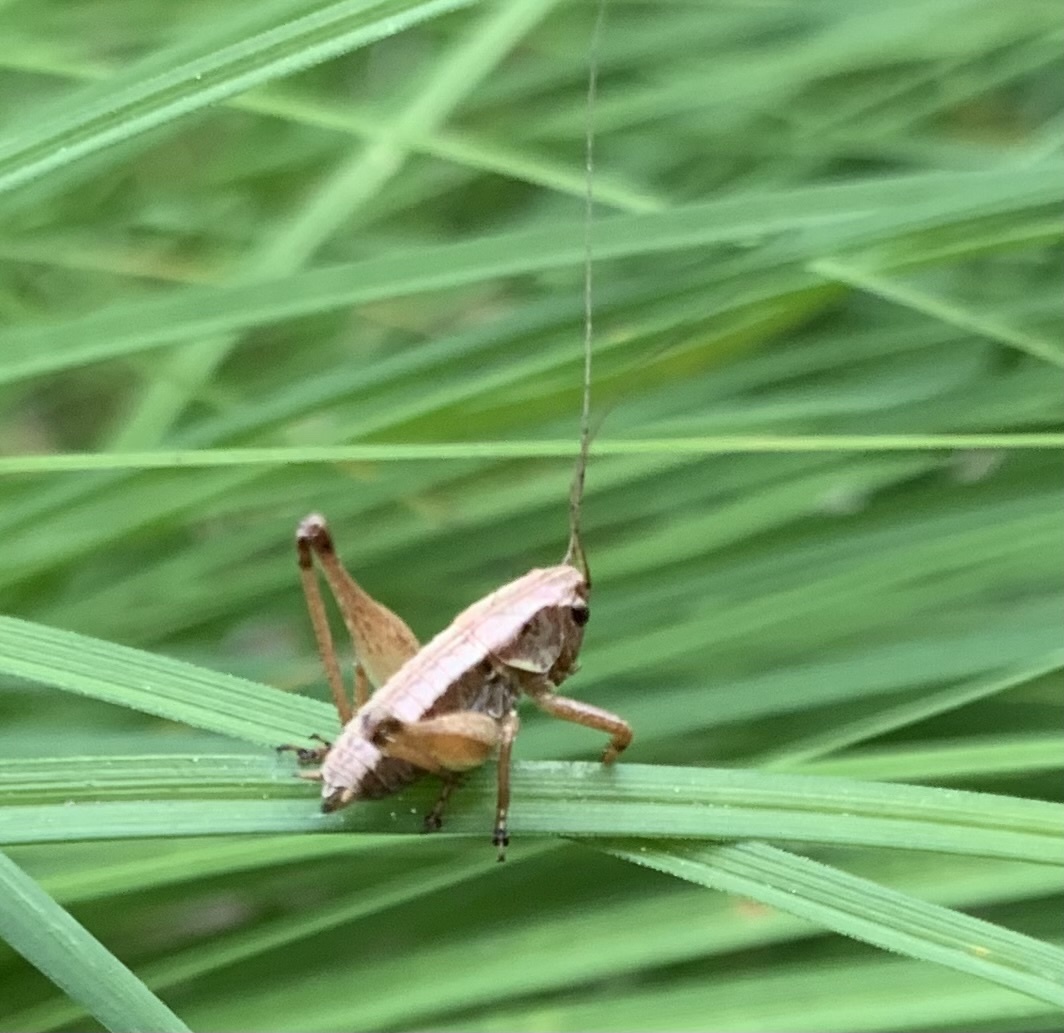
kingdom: Animalia
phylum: Arthropoda
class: Insecta
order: Orthoptera
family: Tettigoniidae
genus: Pholidoptera
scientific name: Pholidoptera griseoaptera
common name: Dark bush-cricket
